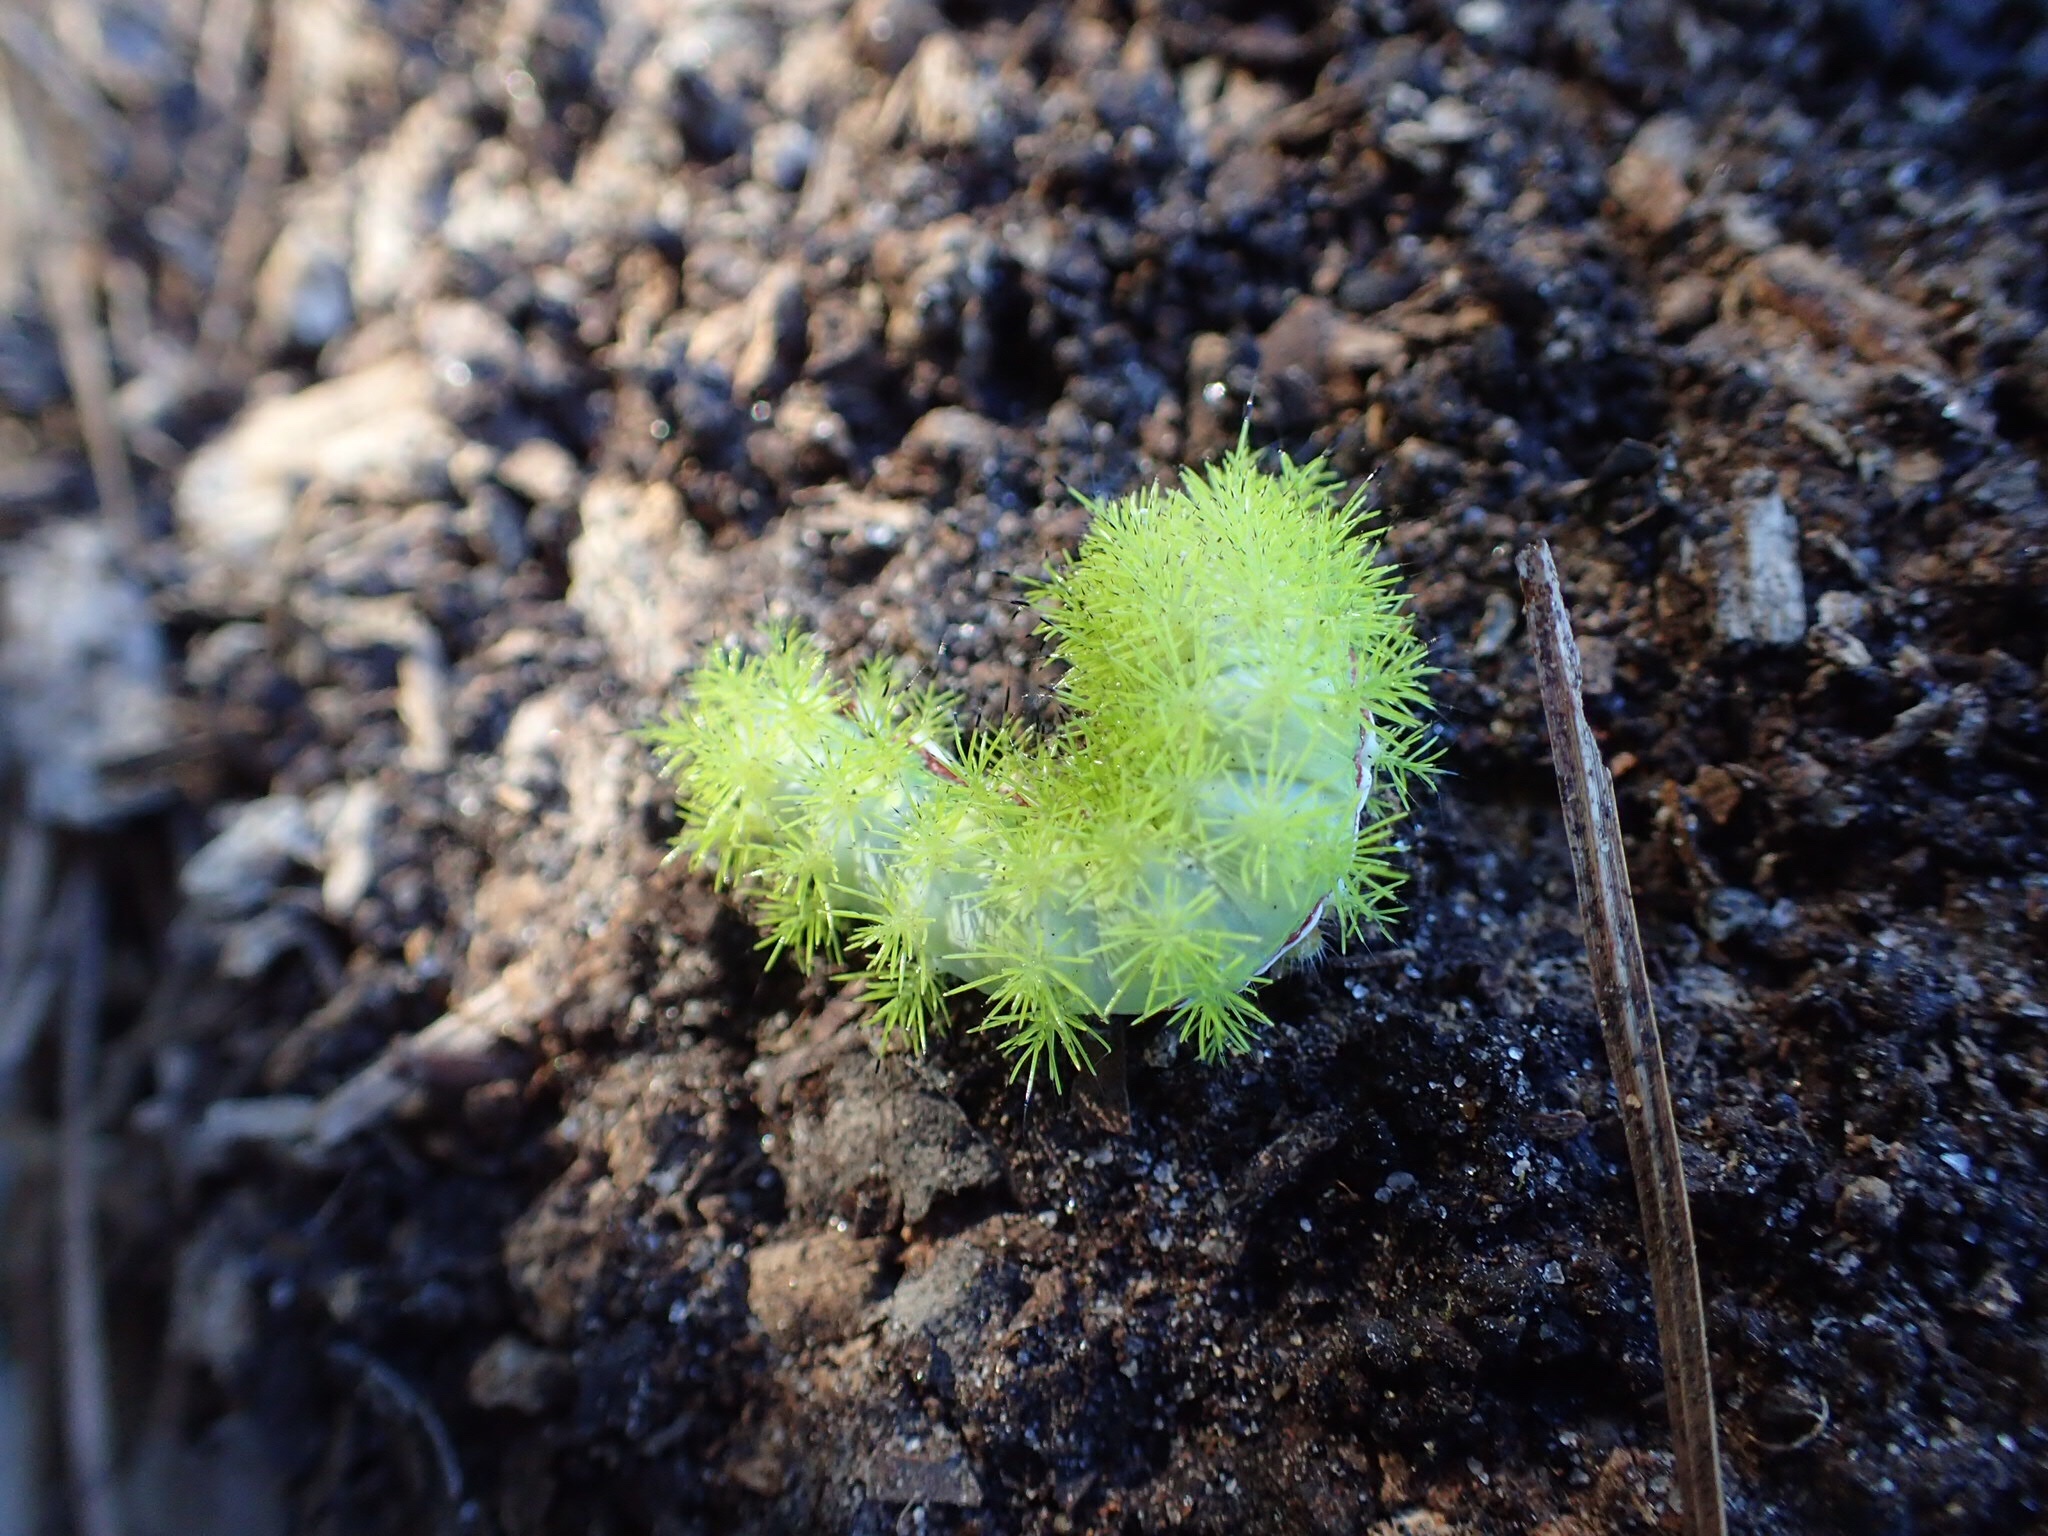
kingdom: Animalia
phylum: Arthropoda
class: Insecta
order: Lepidoptera
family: Saturniidae
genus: Automeris
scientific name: Automeris io
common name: Io moth
